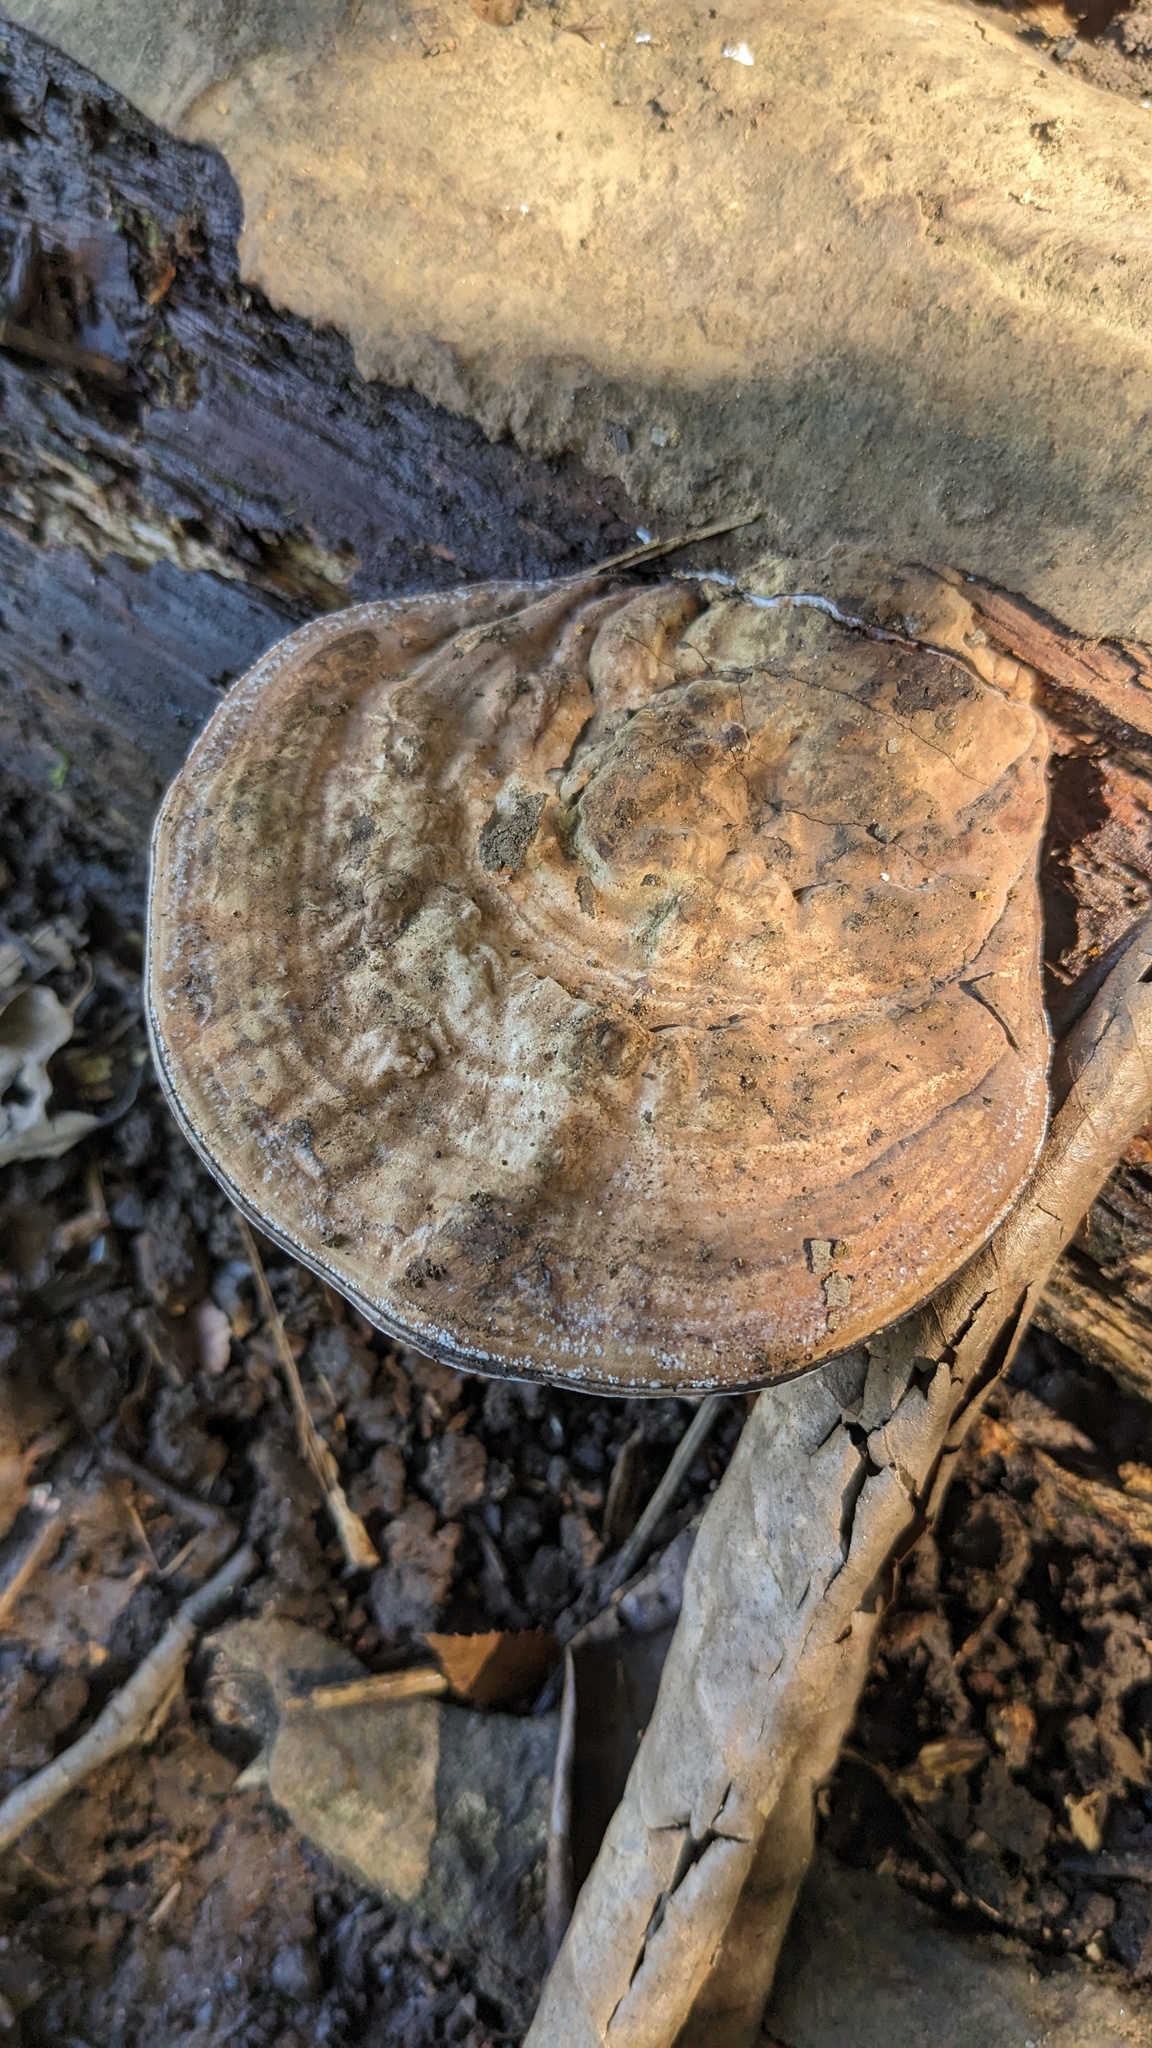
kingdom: Fungi
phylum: Basidiomycota
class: Agaricomycetes
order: Polyporales
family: Polyporaceae
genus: Ganoderma
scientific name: Ganoderma applanatum
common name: Artist's bracket
